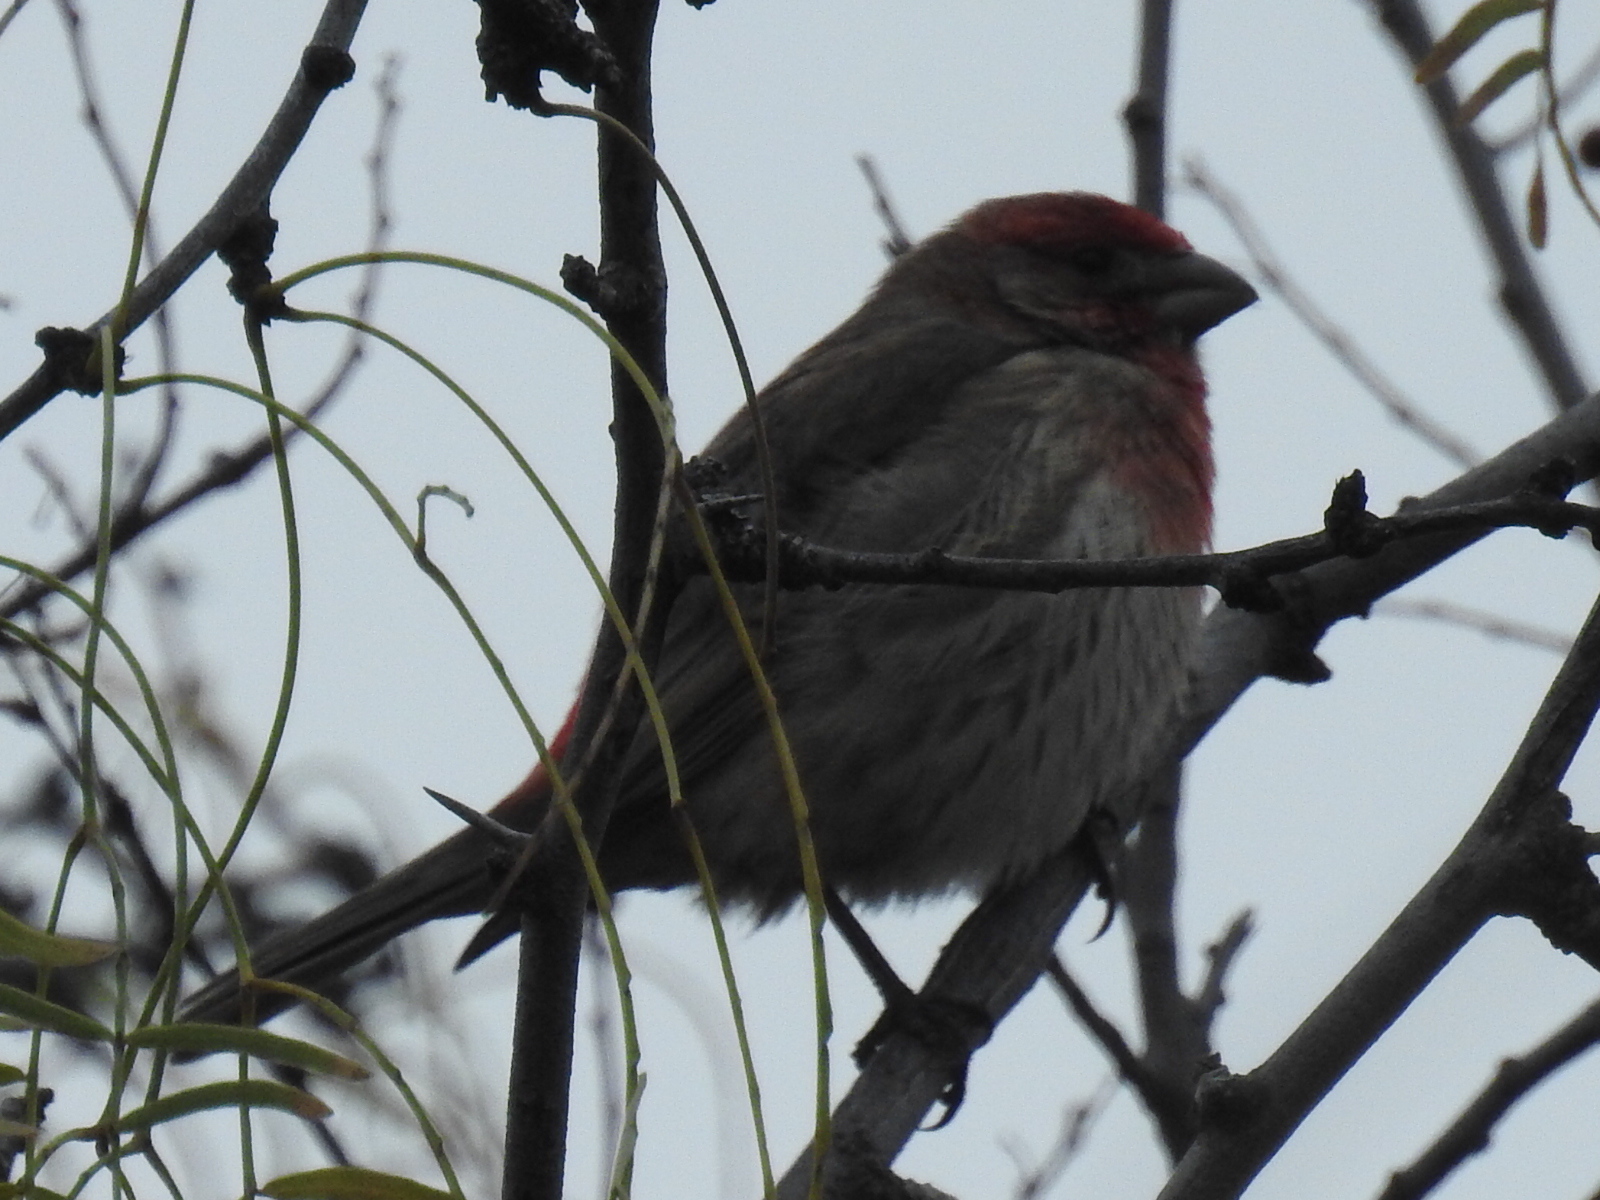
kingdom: Animalia
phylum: Chordata
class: Aves
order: Passeriformes
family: Fringillidae
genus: Haemorhous
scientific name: Haemorhous mexicanus
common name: House finch
